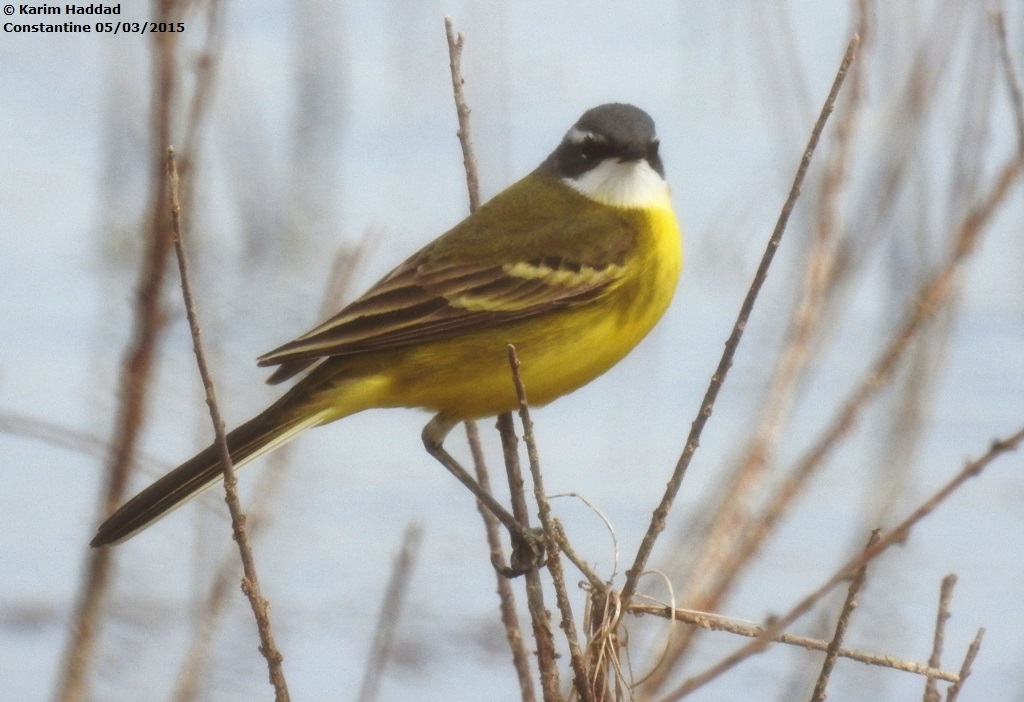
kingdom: Animalia
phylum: Chordata
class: Aves
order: Passeriformes
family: Motacillidae
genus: Motacilla
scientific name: Motacilla flava
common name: Western yellow wagtail
